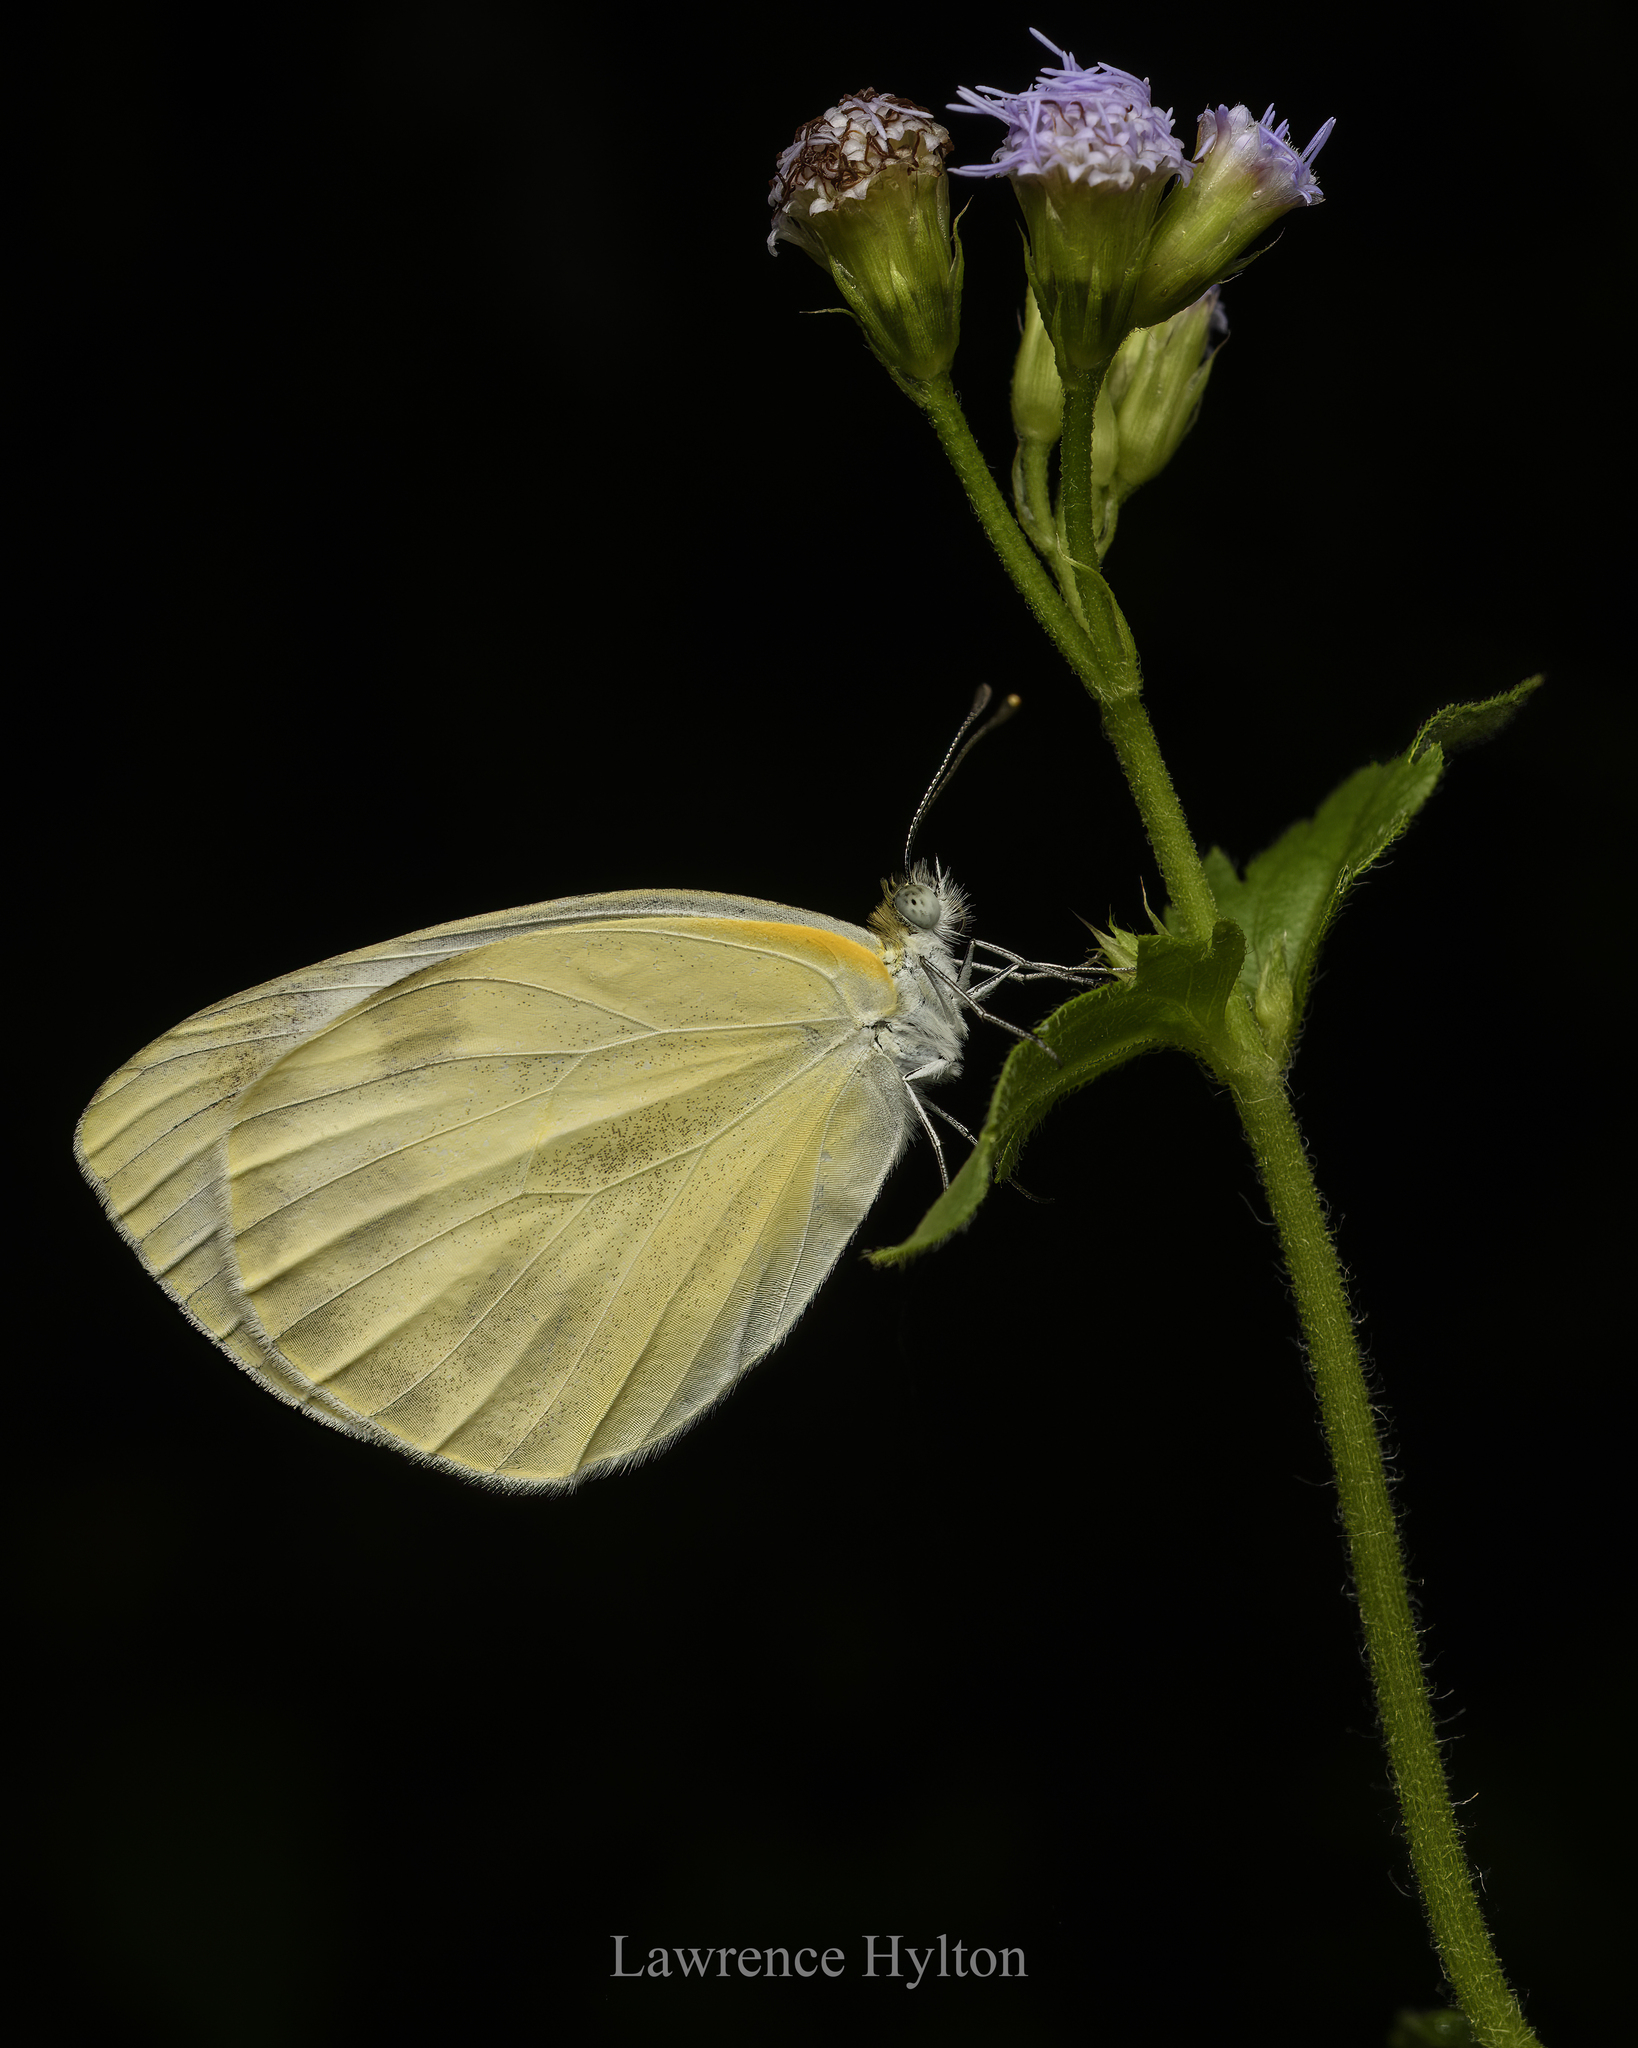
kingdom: Animalia
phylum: Arthropoda
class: Insecta
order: Lepidoptera
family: Pieridae
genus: Pieris
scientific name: Pieris canidia
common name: Indian cabbage white
